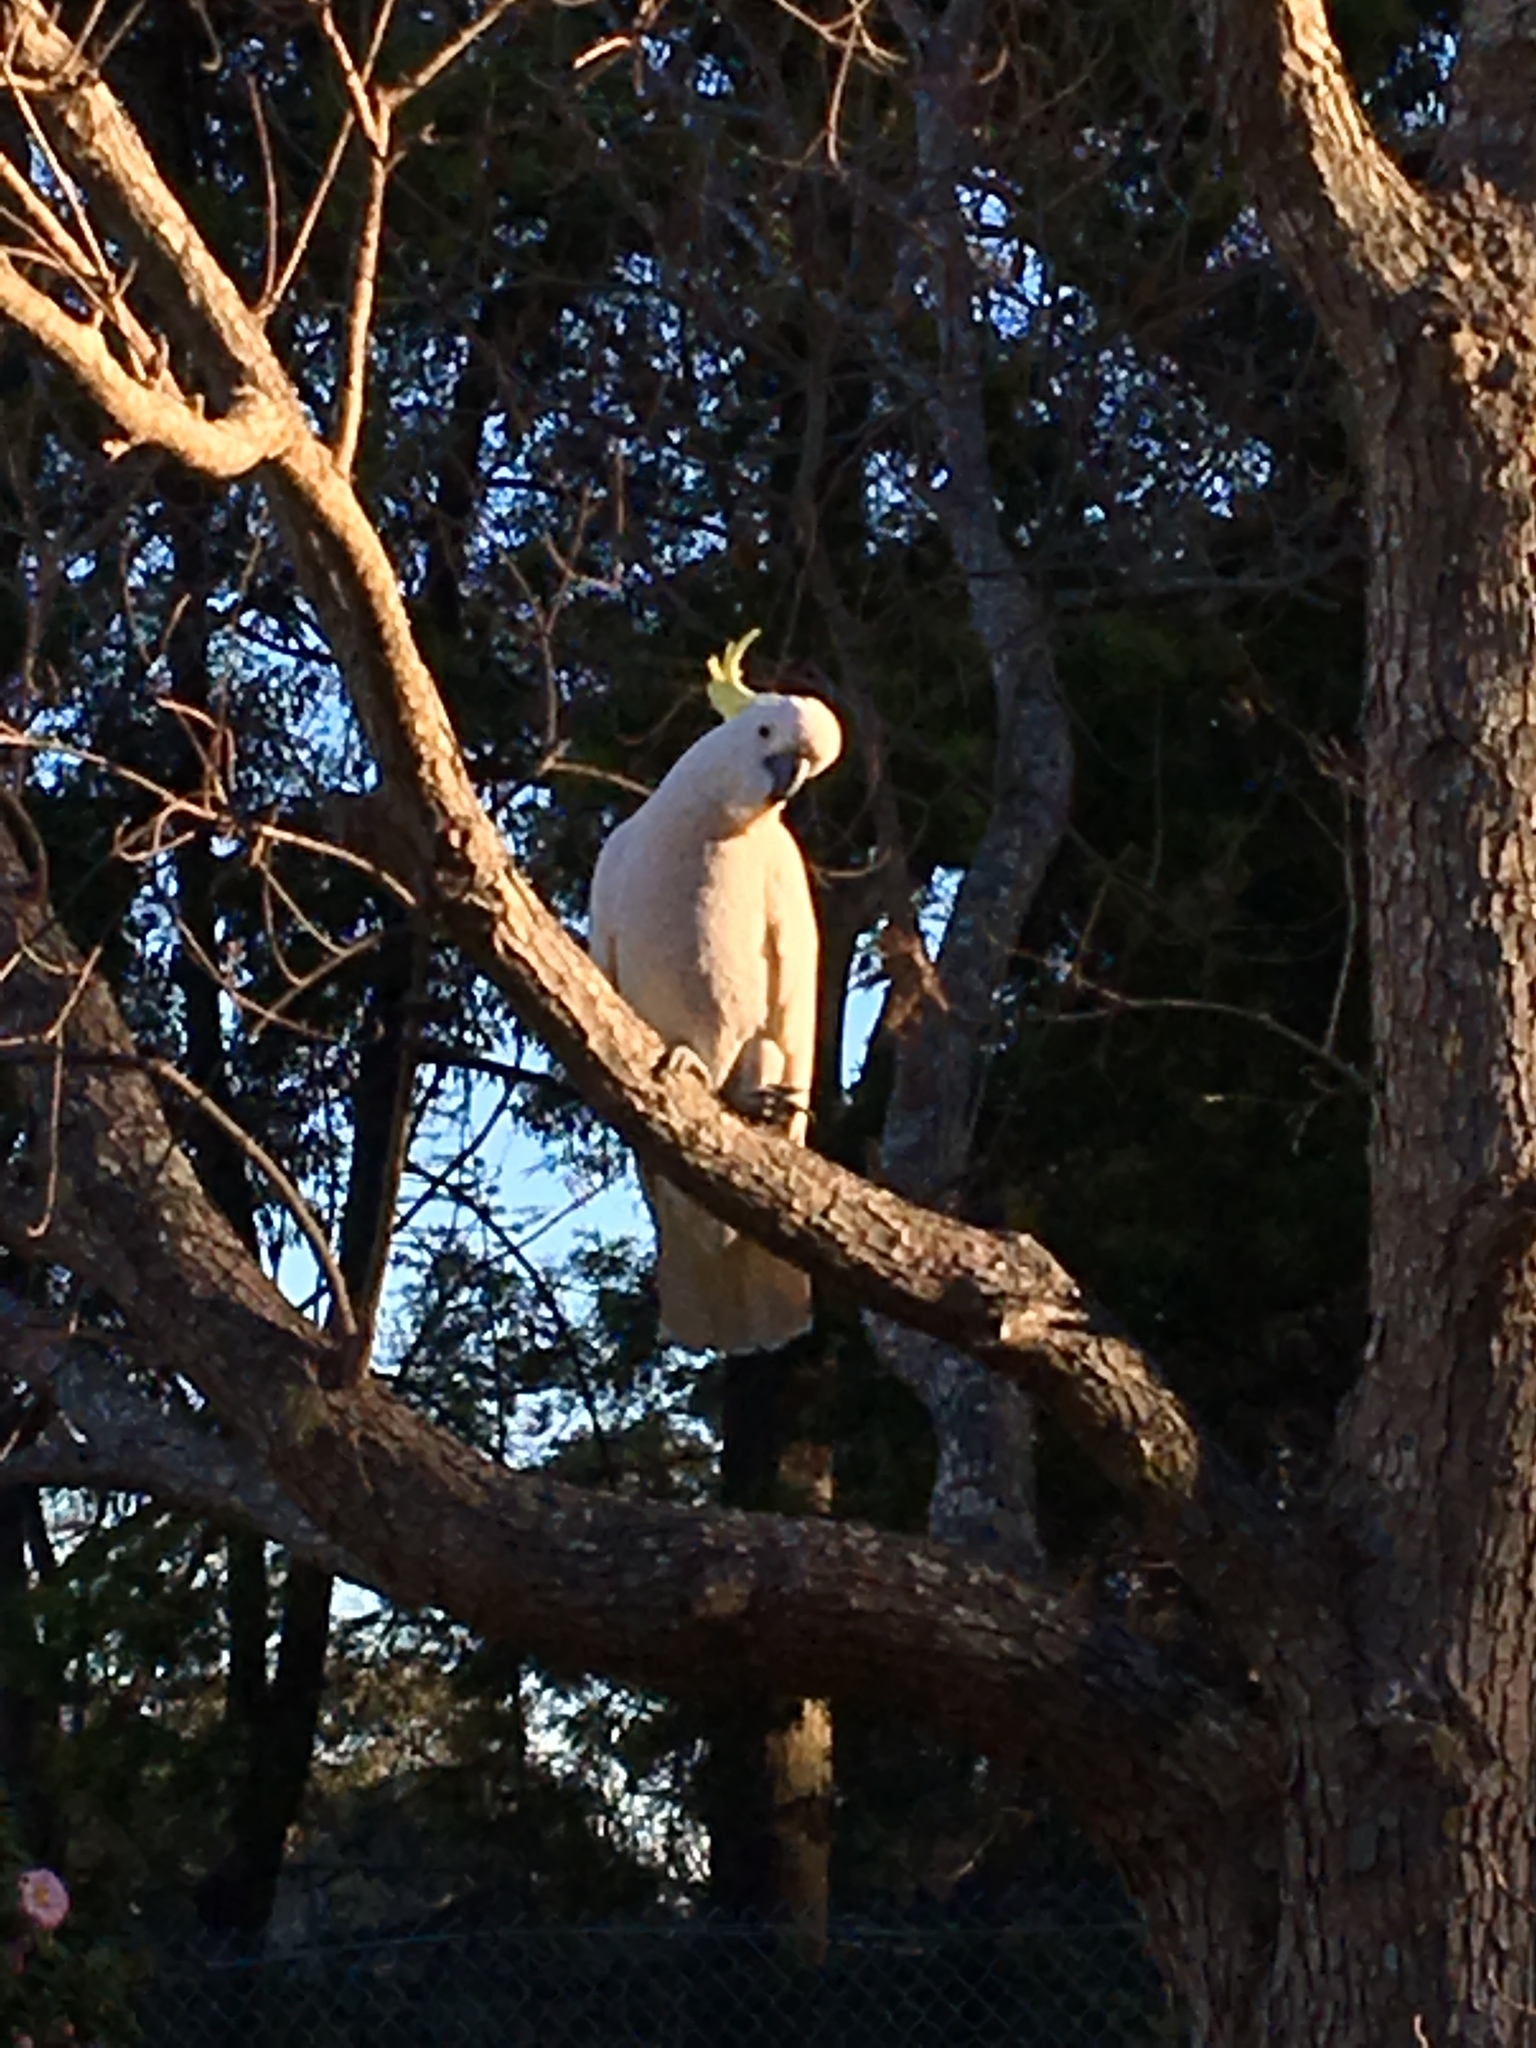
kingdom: Animalia
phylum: Chordata
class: Aves
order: Psittaciformes
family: Psittacidae
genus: Cacatua
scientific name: Cacatua galerita
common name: Sulphur-crested cockatoo
